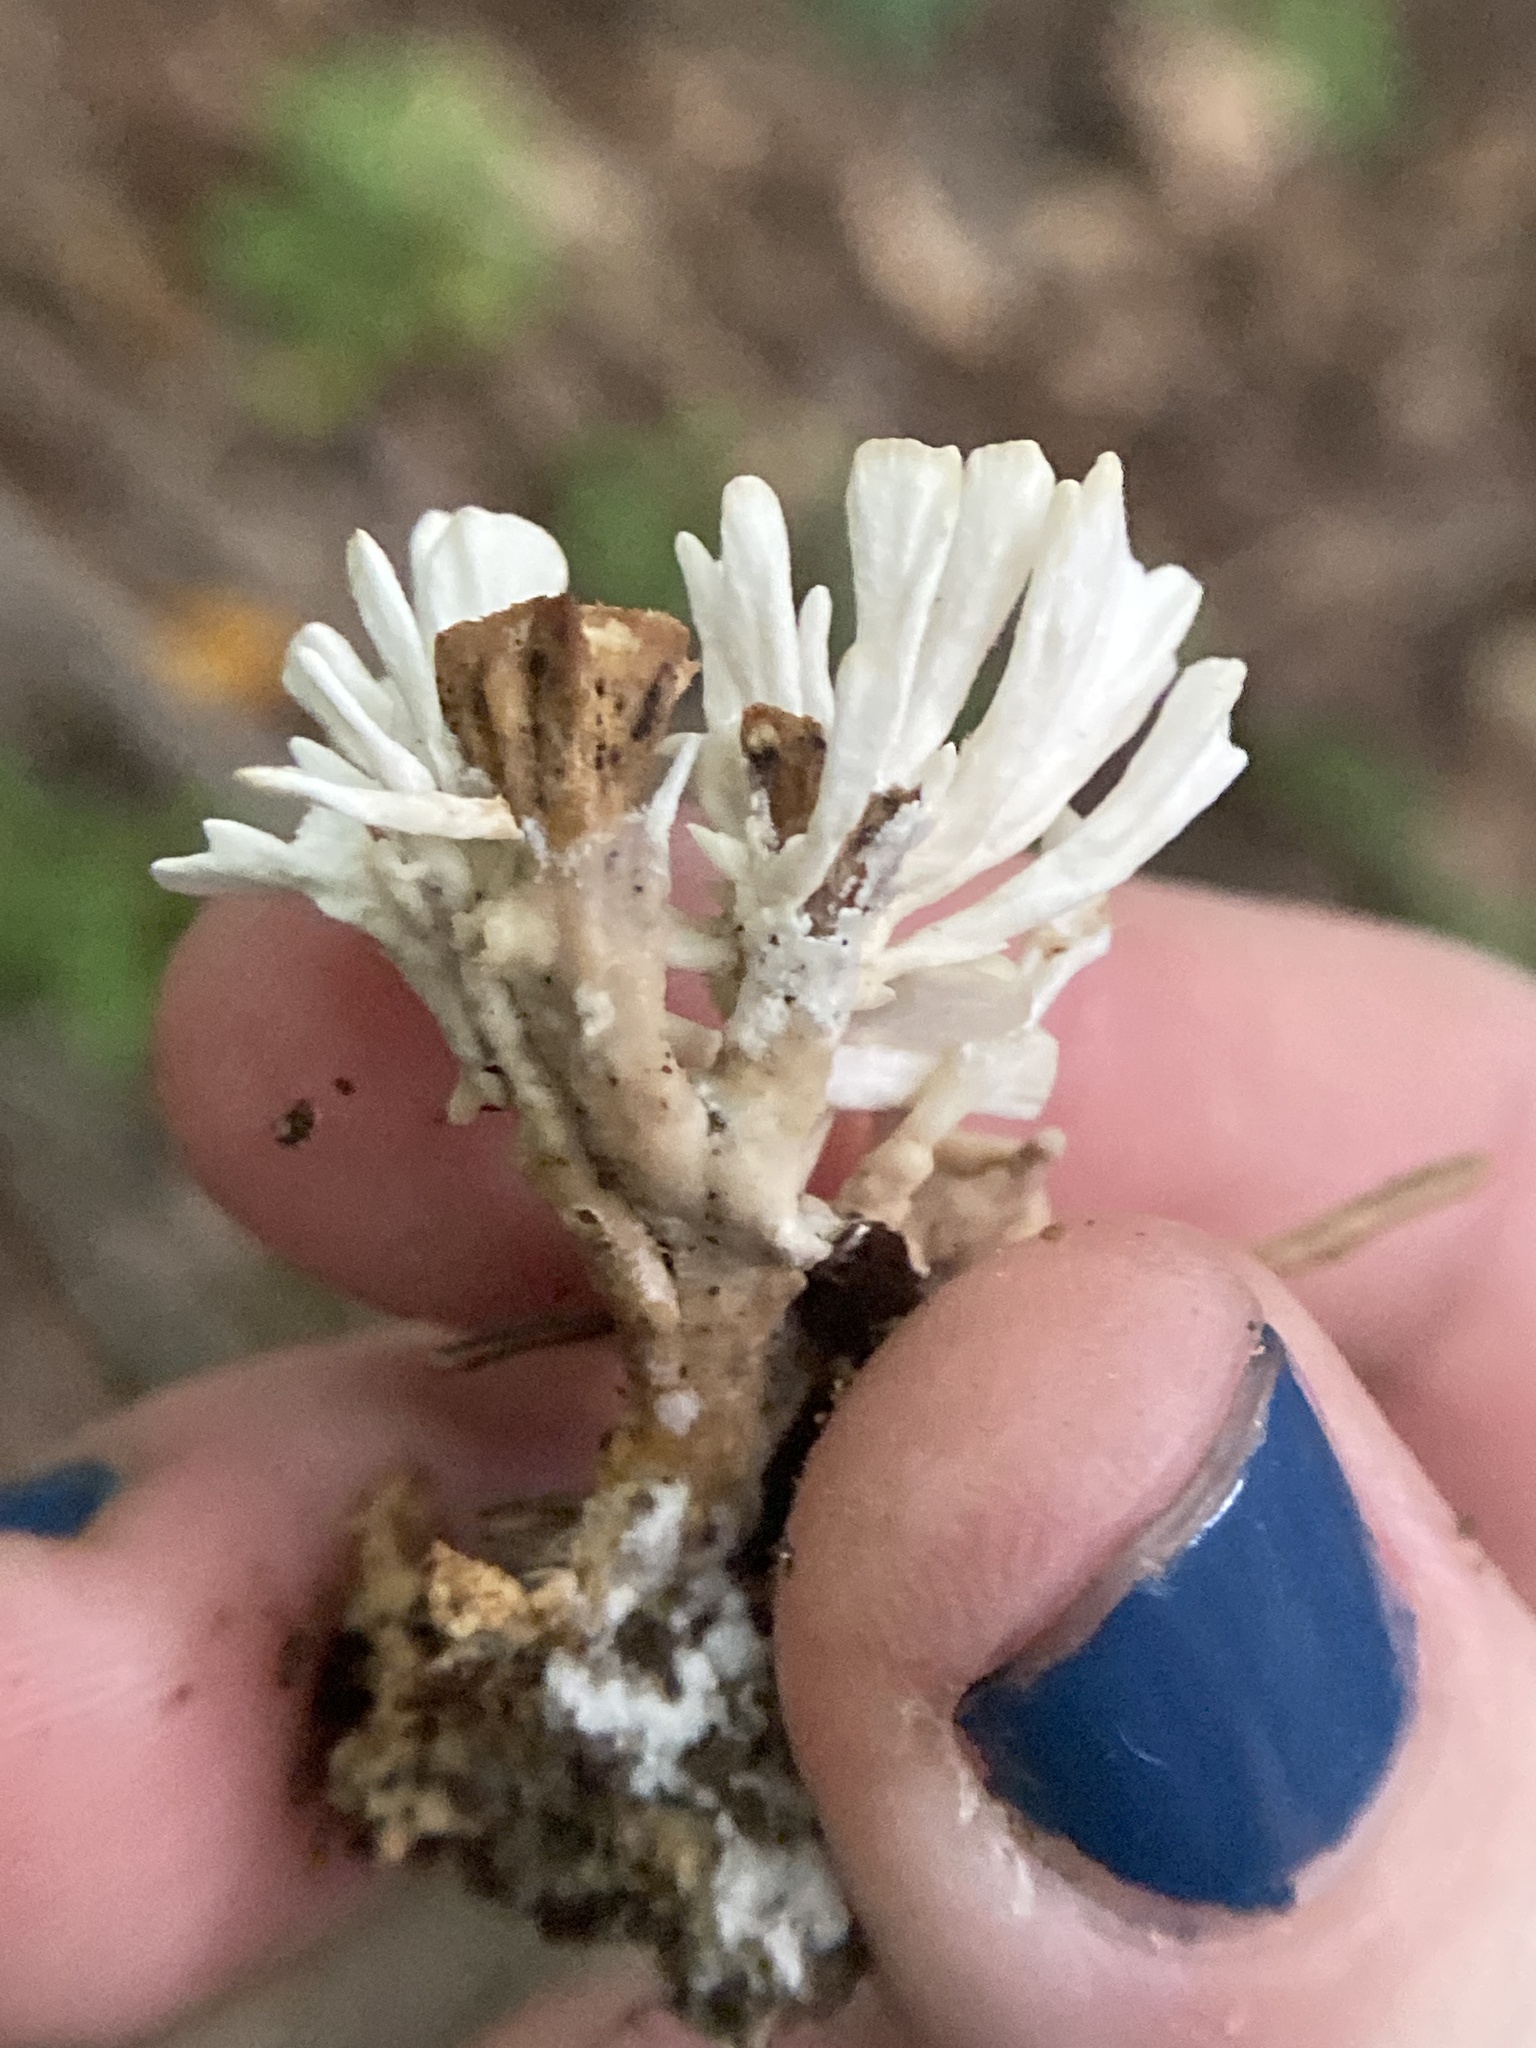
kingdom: Fungi
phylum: Basidiomycota
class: Agaricomycetes
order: Sebacinales
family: Sebacinaceae
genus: Sebacina
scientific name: Sebacina schweinitzii
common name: Jellied false coral fungus
